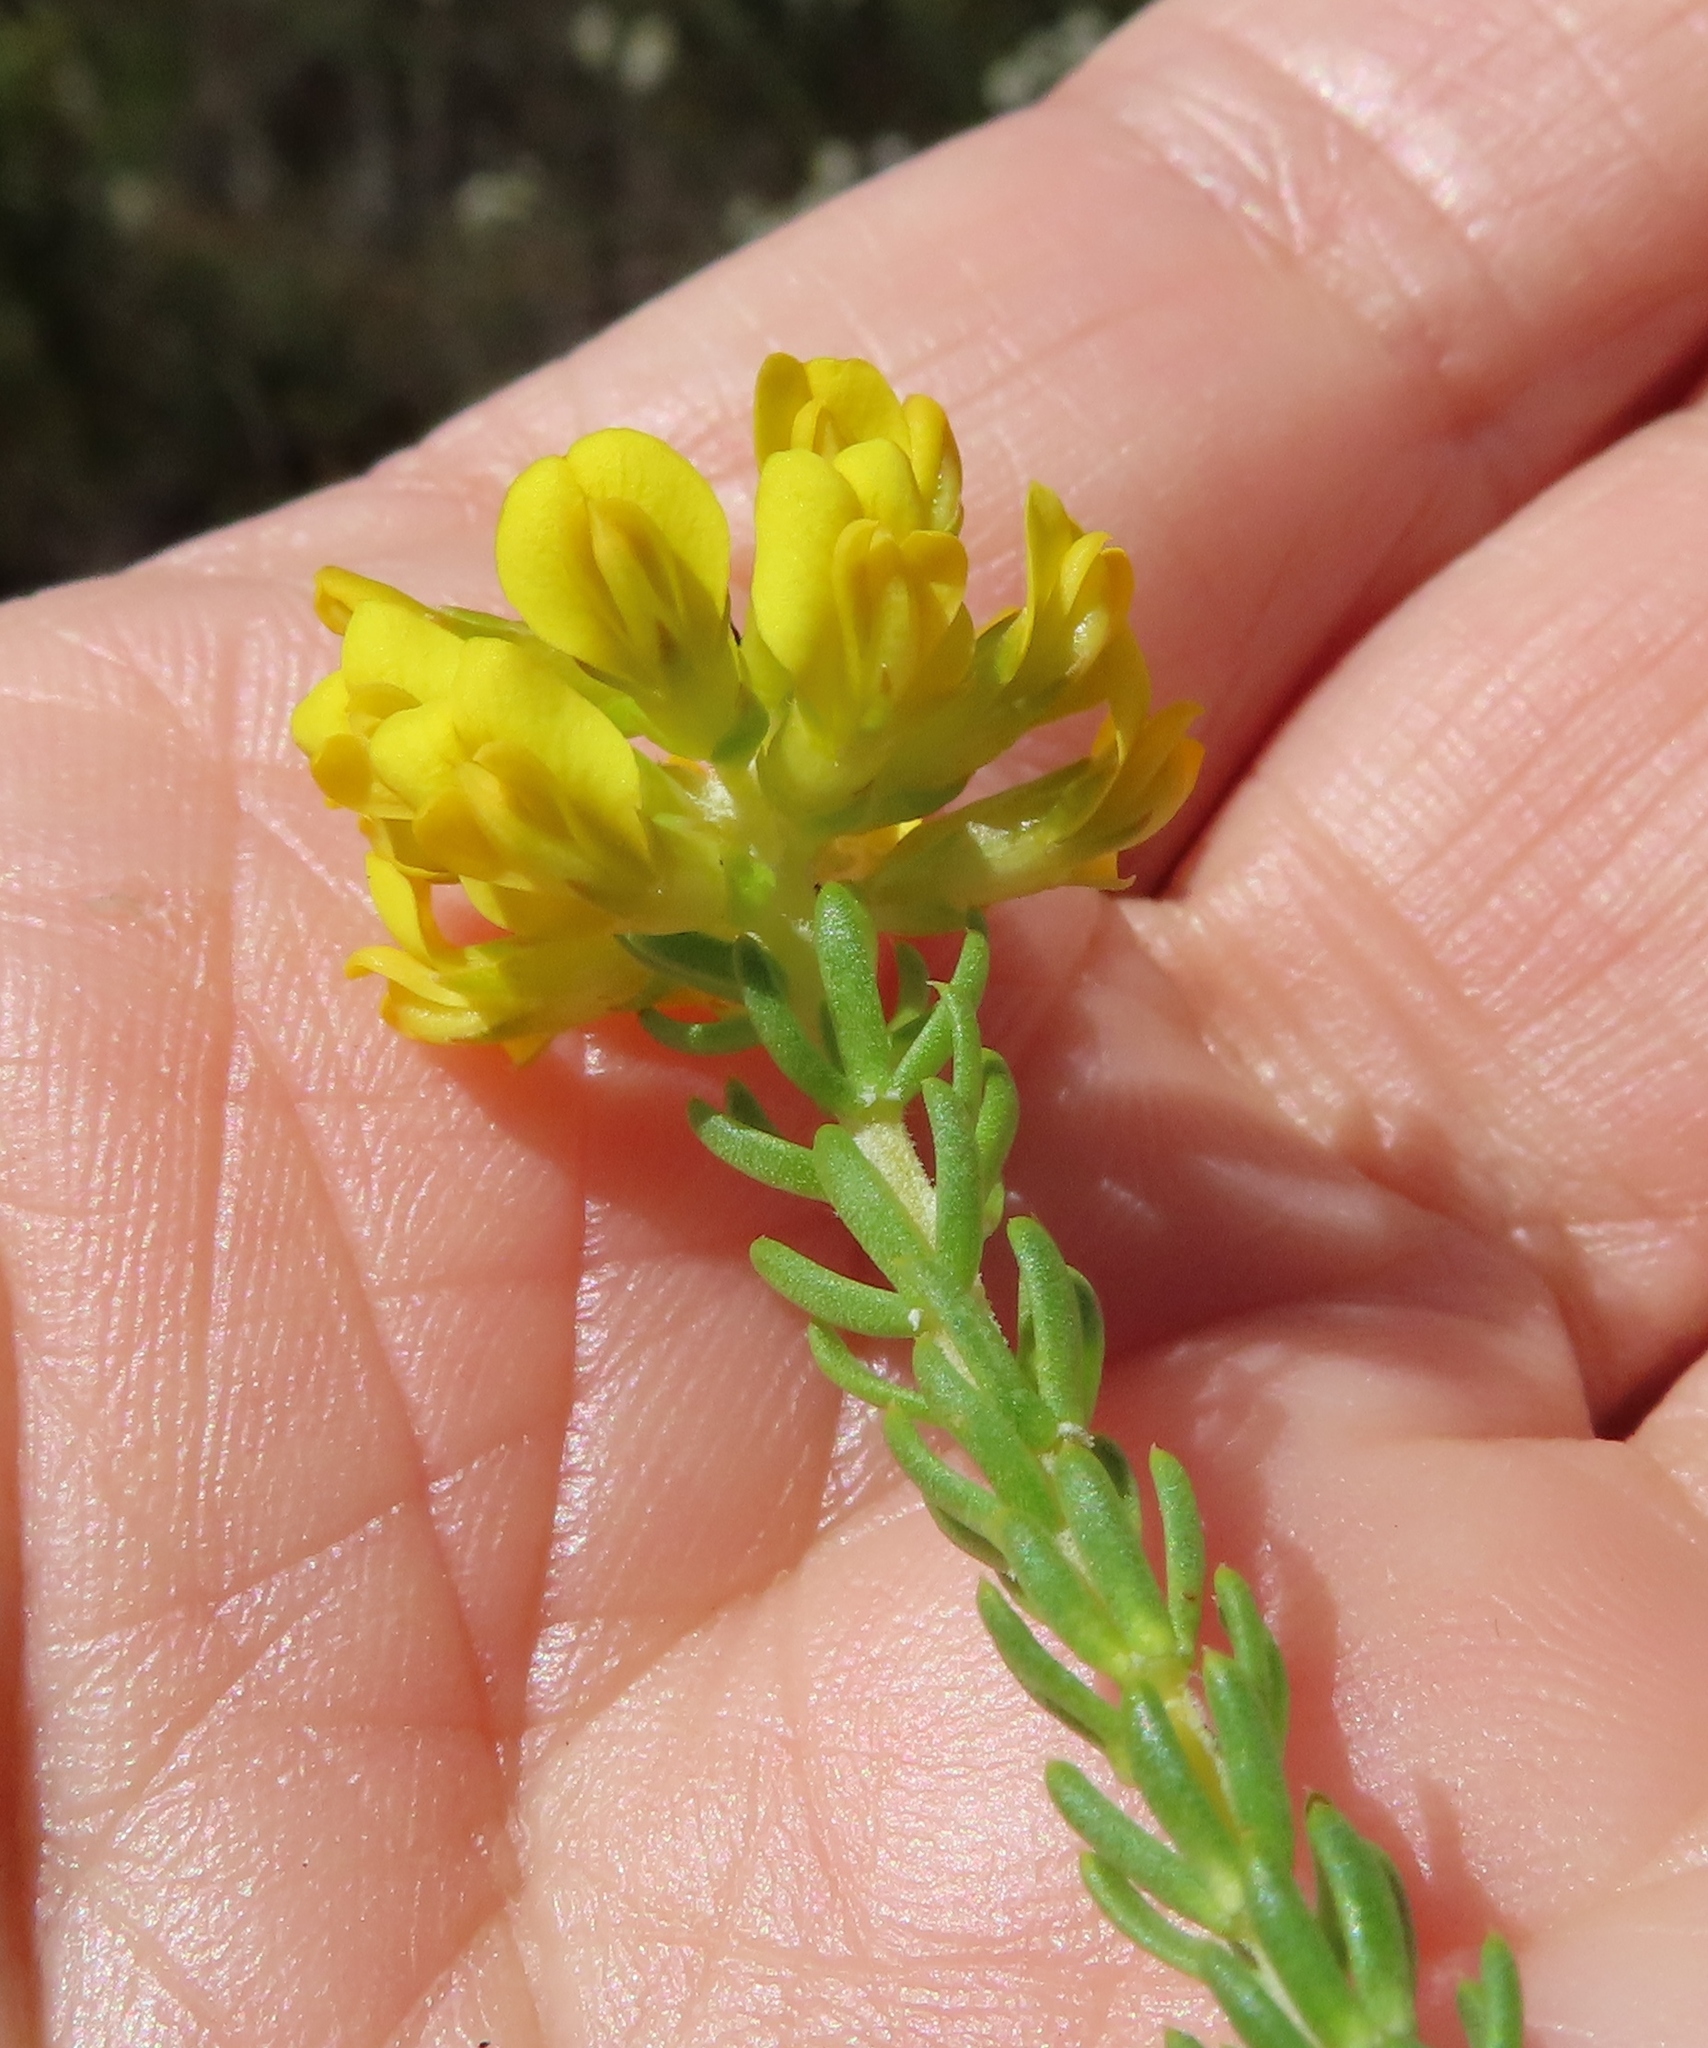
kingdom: Plantae
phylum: Tracheophyta
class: Magnoliopsida
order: Fabales
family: Fabaceae
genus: Aspalathus
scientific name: Aspalathus tylodes
